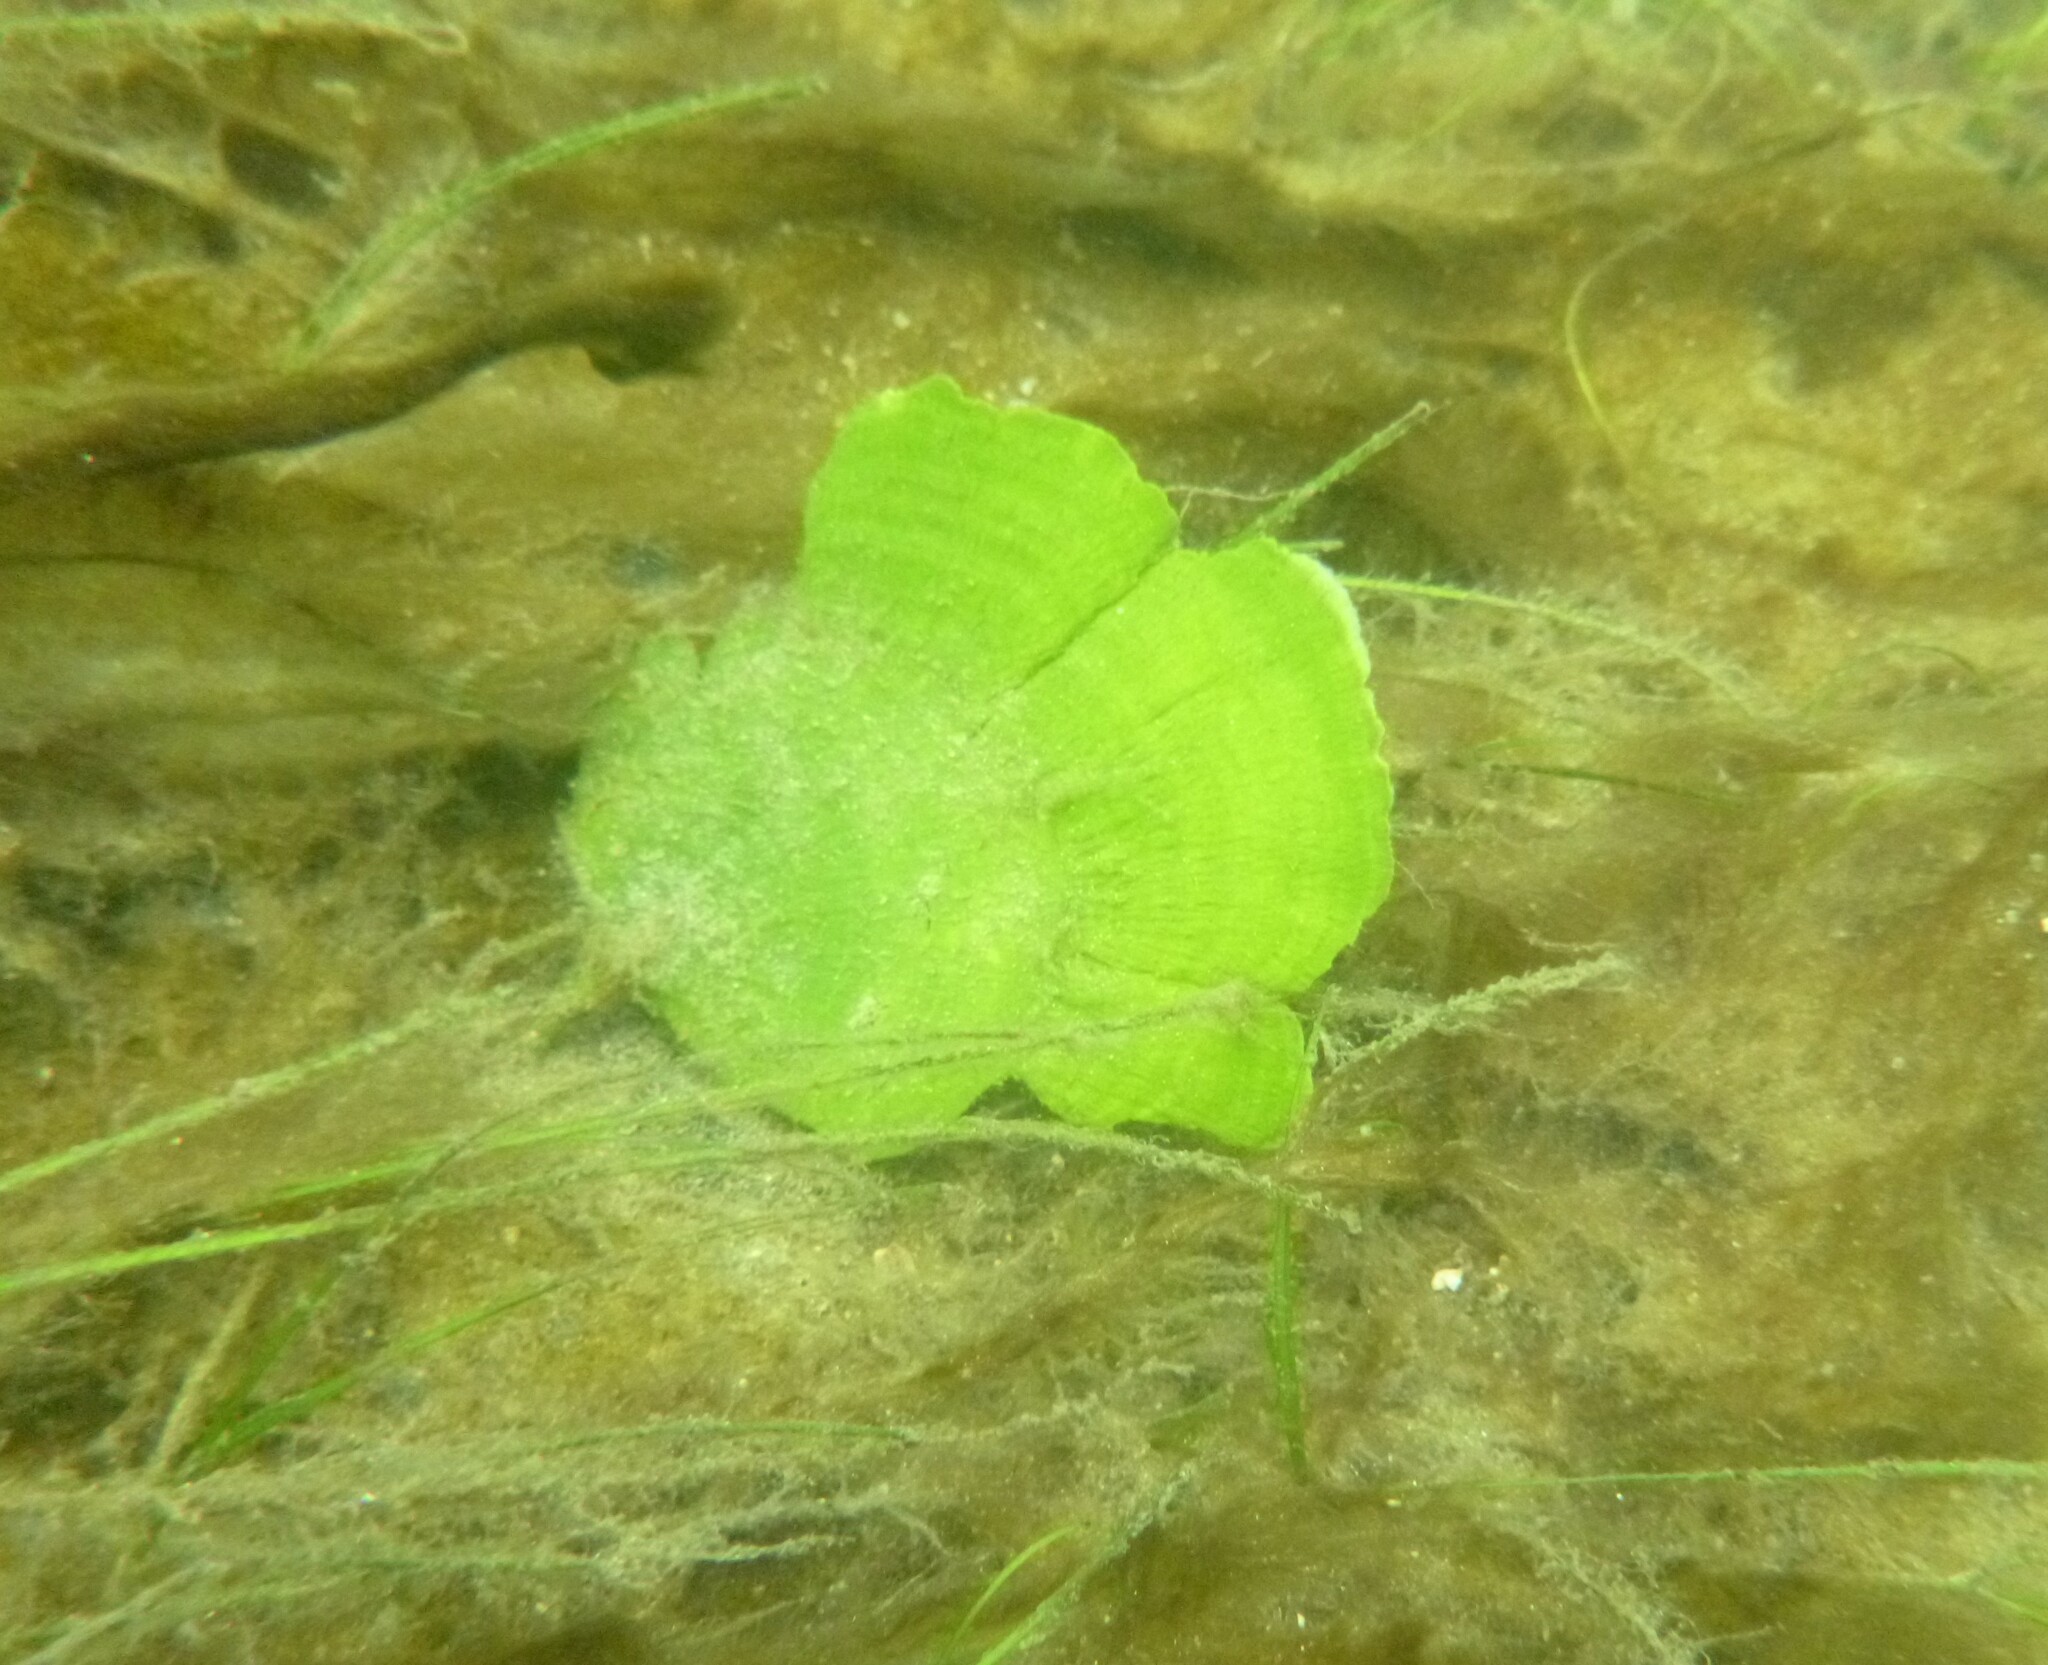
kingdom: Plantae
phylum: Chlorophyta
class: Ulvophyceae
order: Bryopsidales
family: Udoteaceae
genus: Udotea
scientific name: Udotea flabellum
